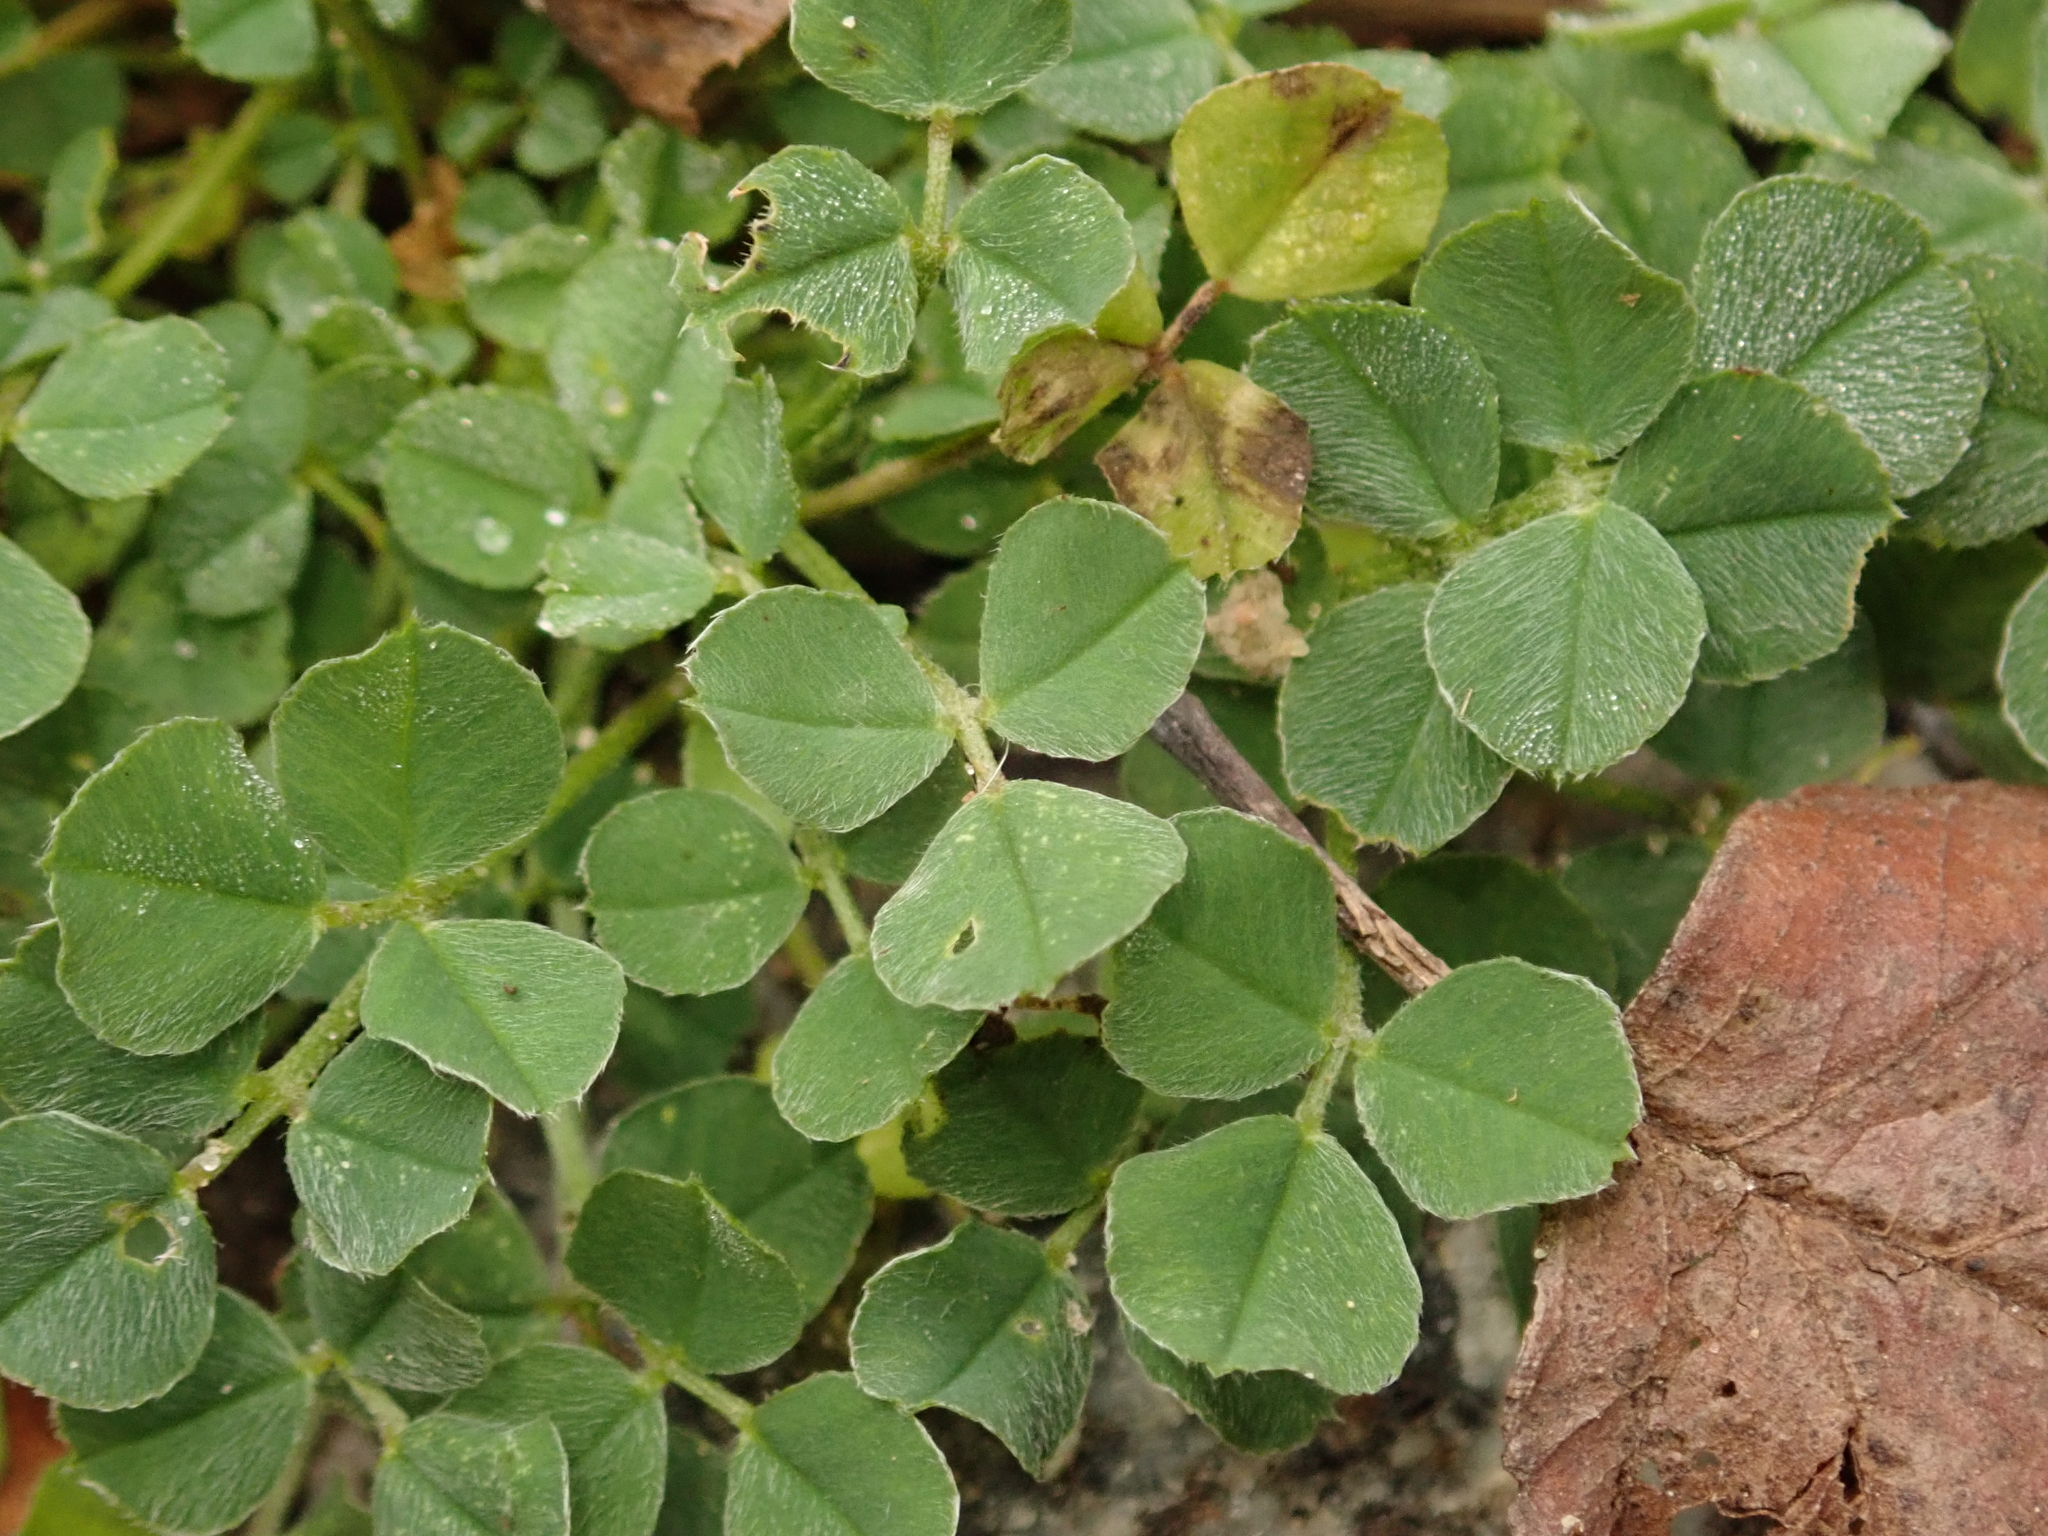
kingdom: Plantae
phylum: Tracheophyta
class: Magnoliopsida
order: Fabales
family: Fabaceae
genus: Medicago
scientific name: Medicago lupulina
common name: Black medick
